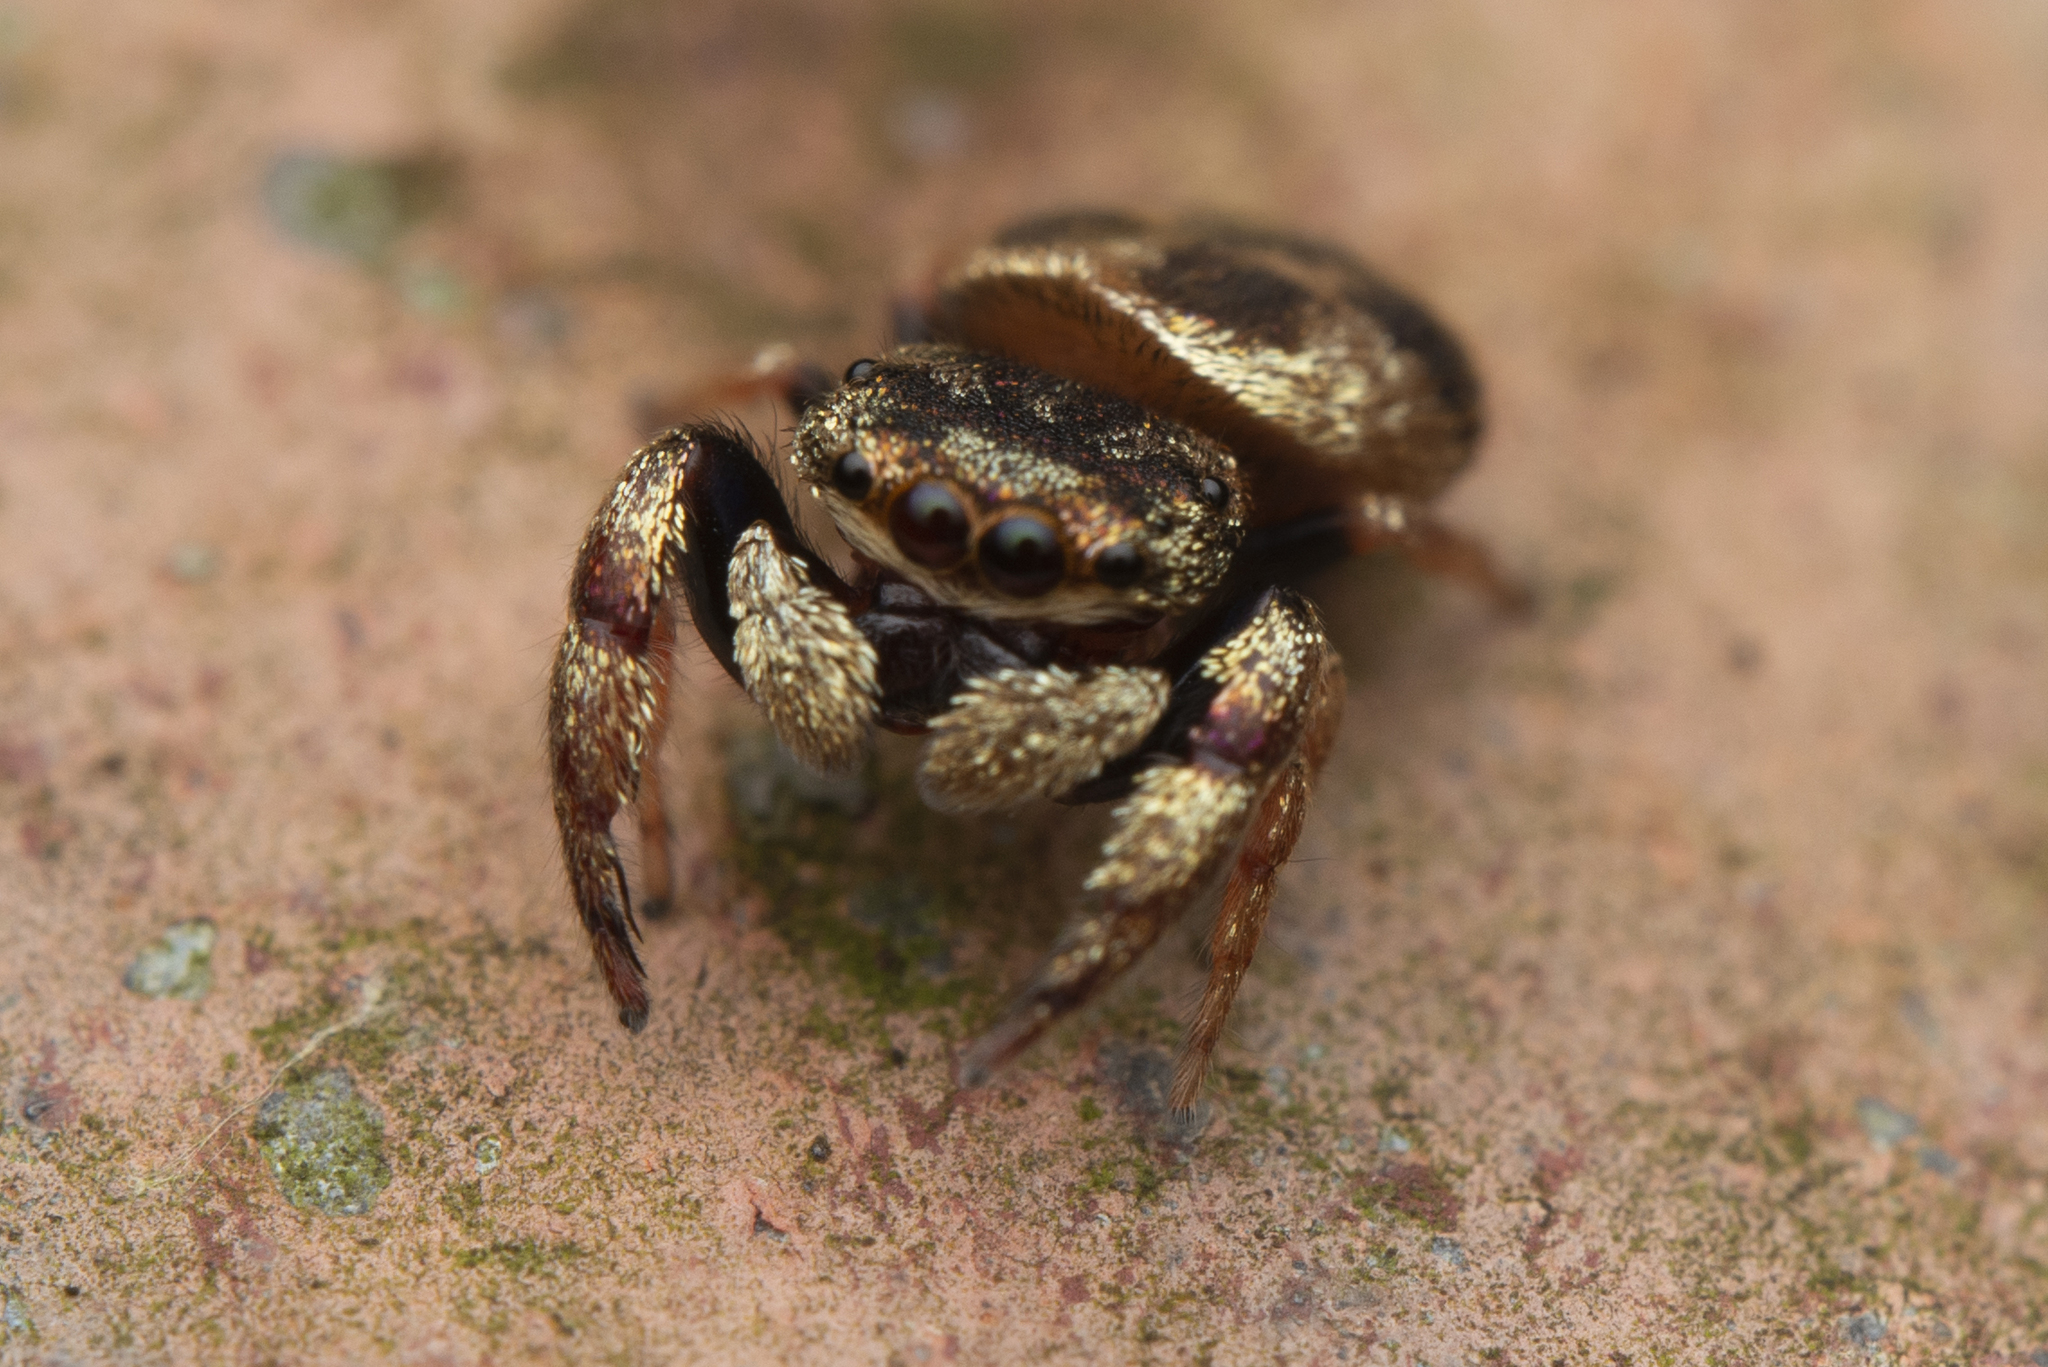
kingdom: Animalia
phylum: Arthropoda
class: Arachnida
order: Araneae
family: Salticidae
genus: Irura
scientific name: Irura bidenticulata
